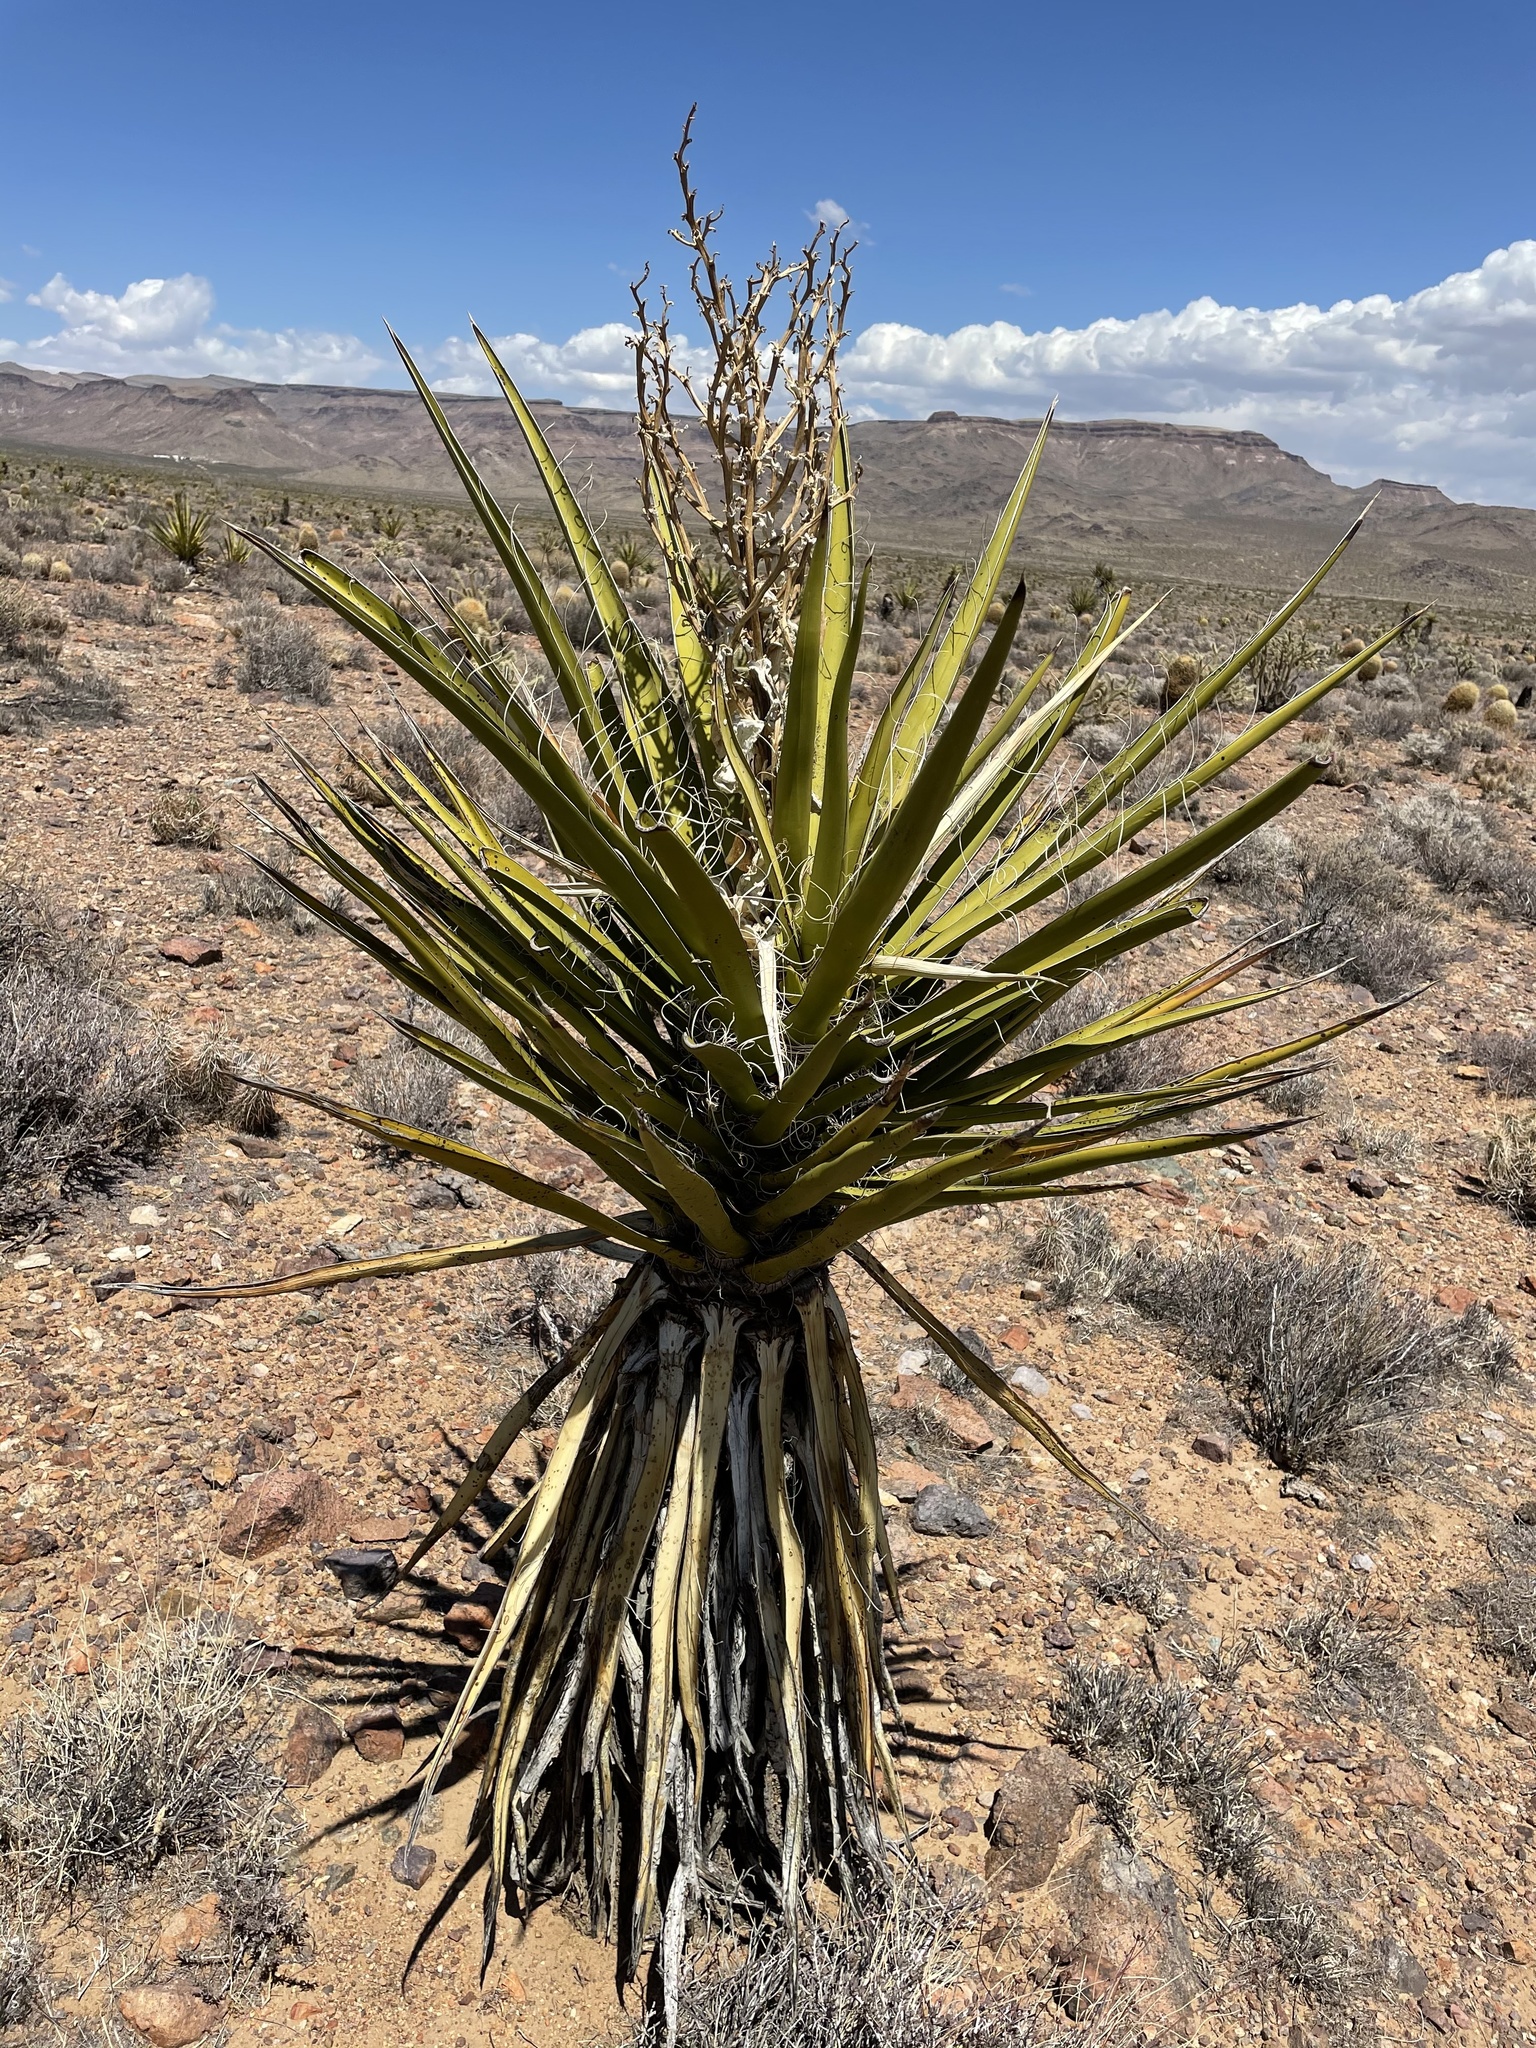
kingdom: Plantae
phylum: Tracheophyta
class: Liliopsida
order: Asparagales
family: Asparagaceae
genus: Yucca
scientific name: Yucca schidigera
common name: Mojave yucca
